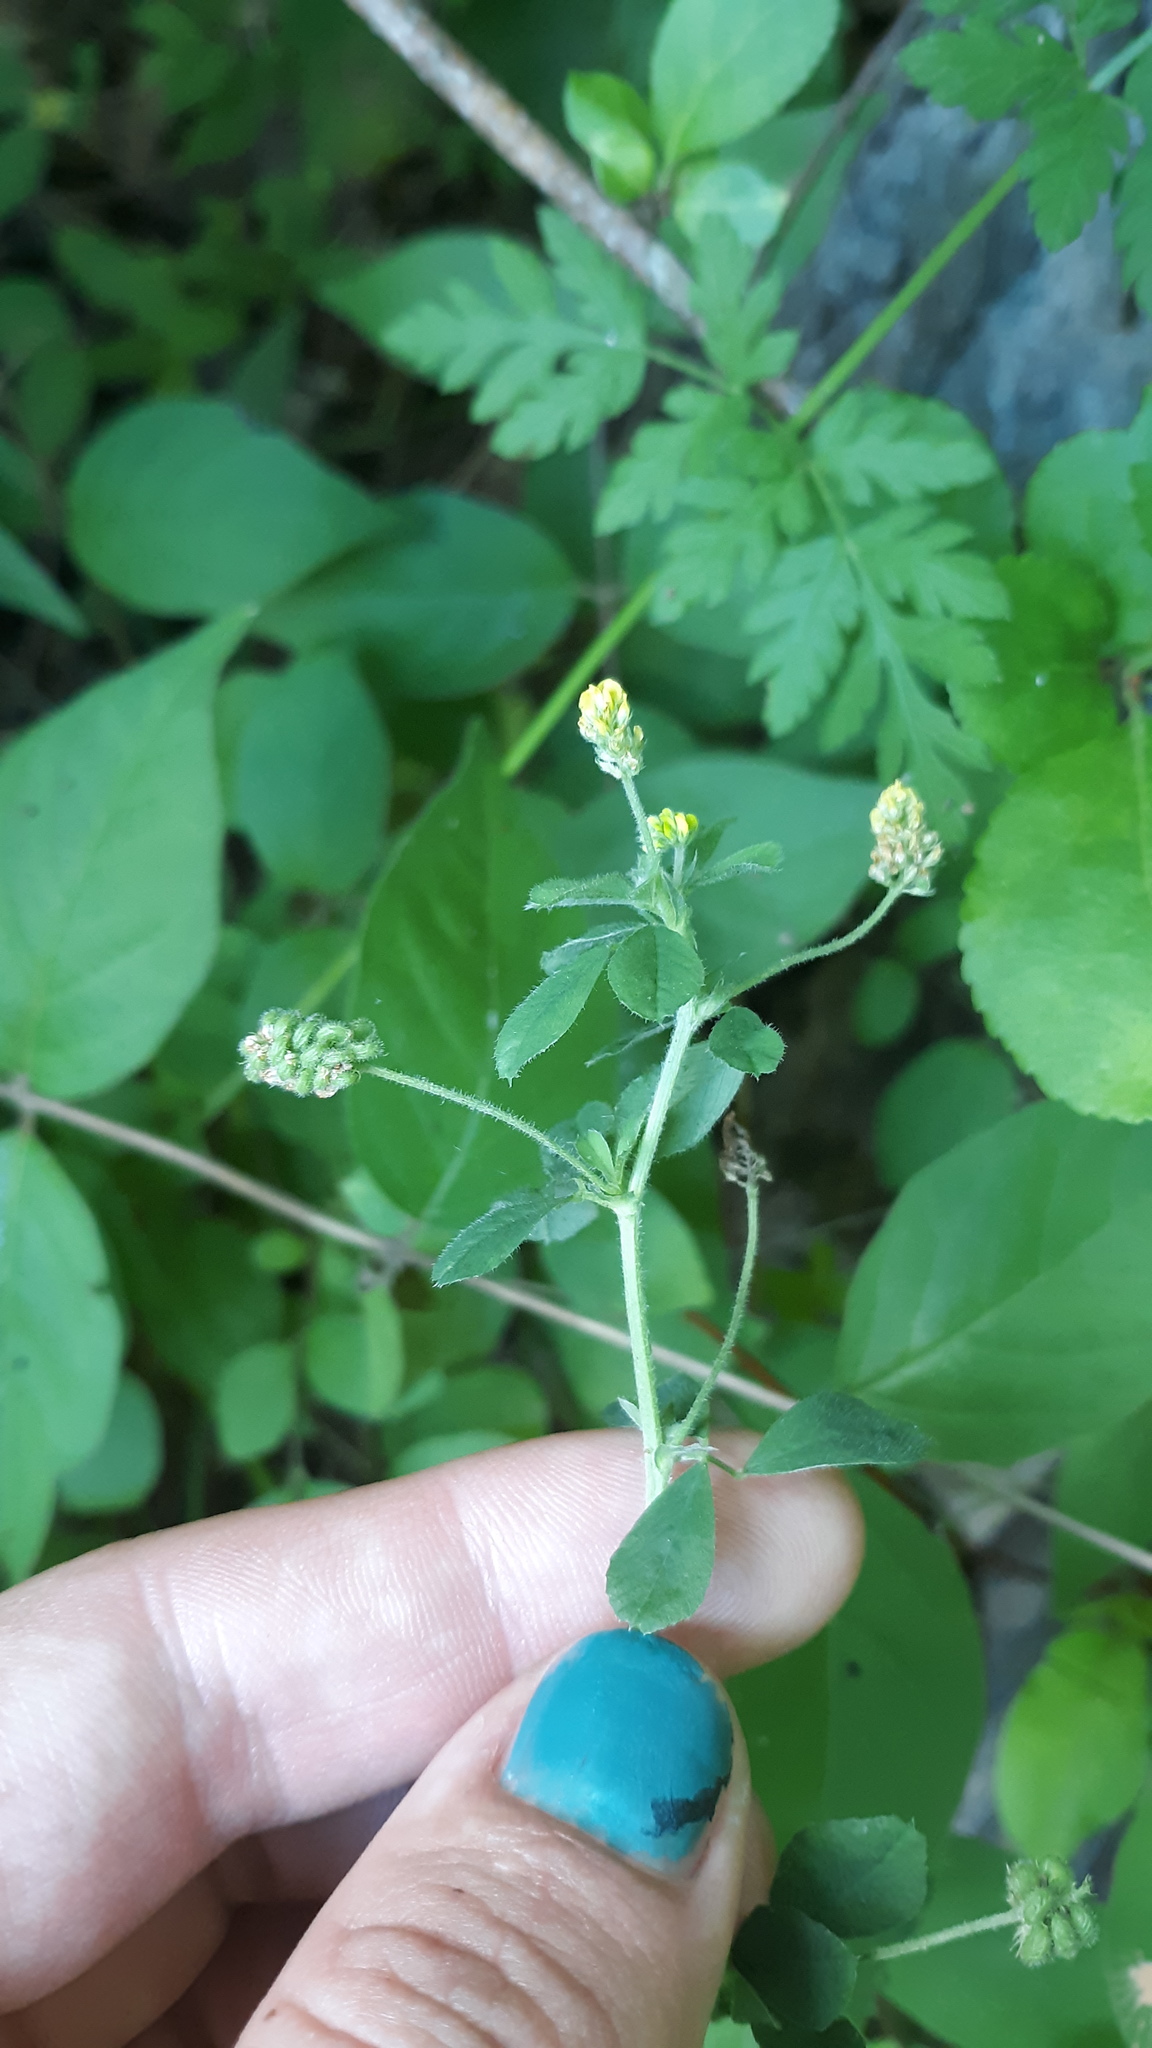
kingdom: Plantae
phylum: Tracheophyta
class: Magnoliopsida
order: Fabales
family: Fabaceae
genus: Medicago
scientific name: Medicago lupulina
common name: Black medick
